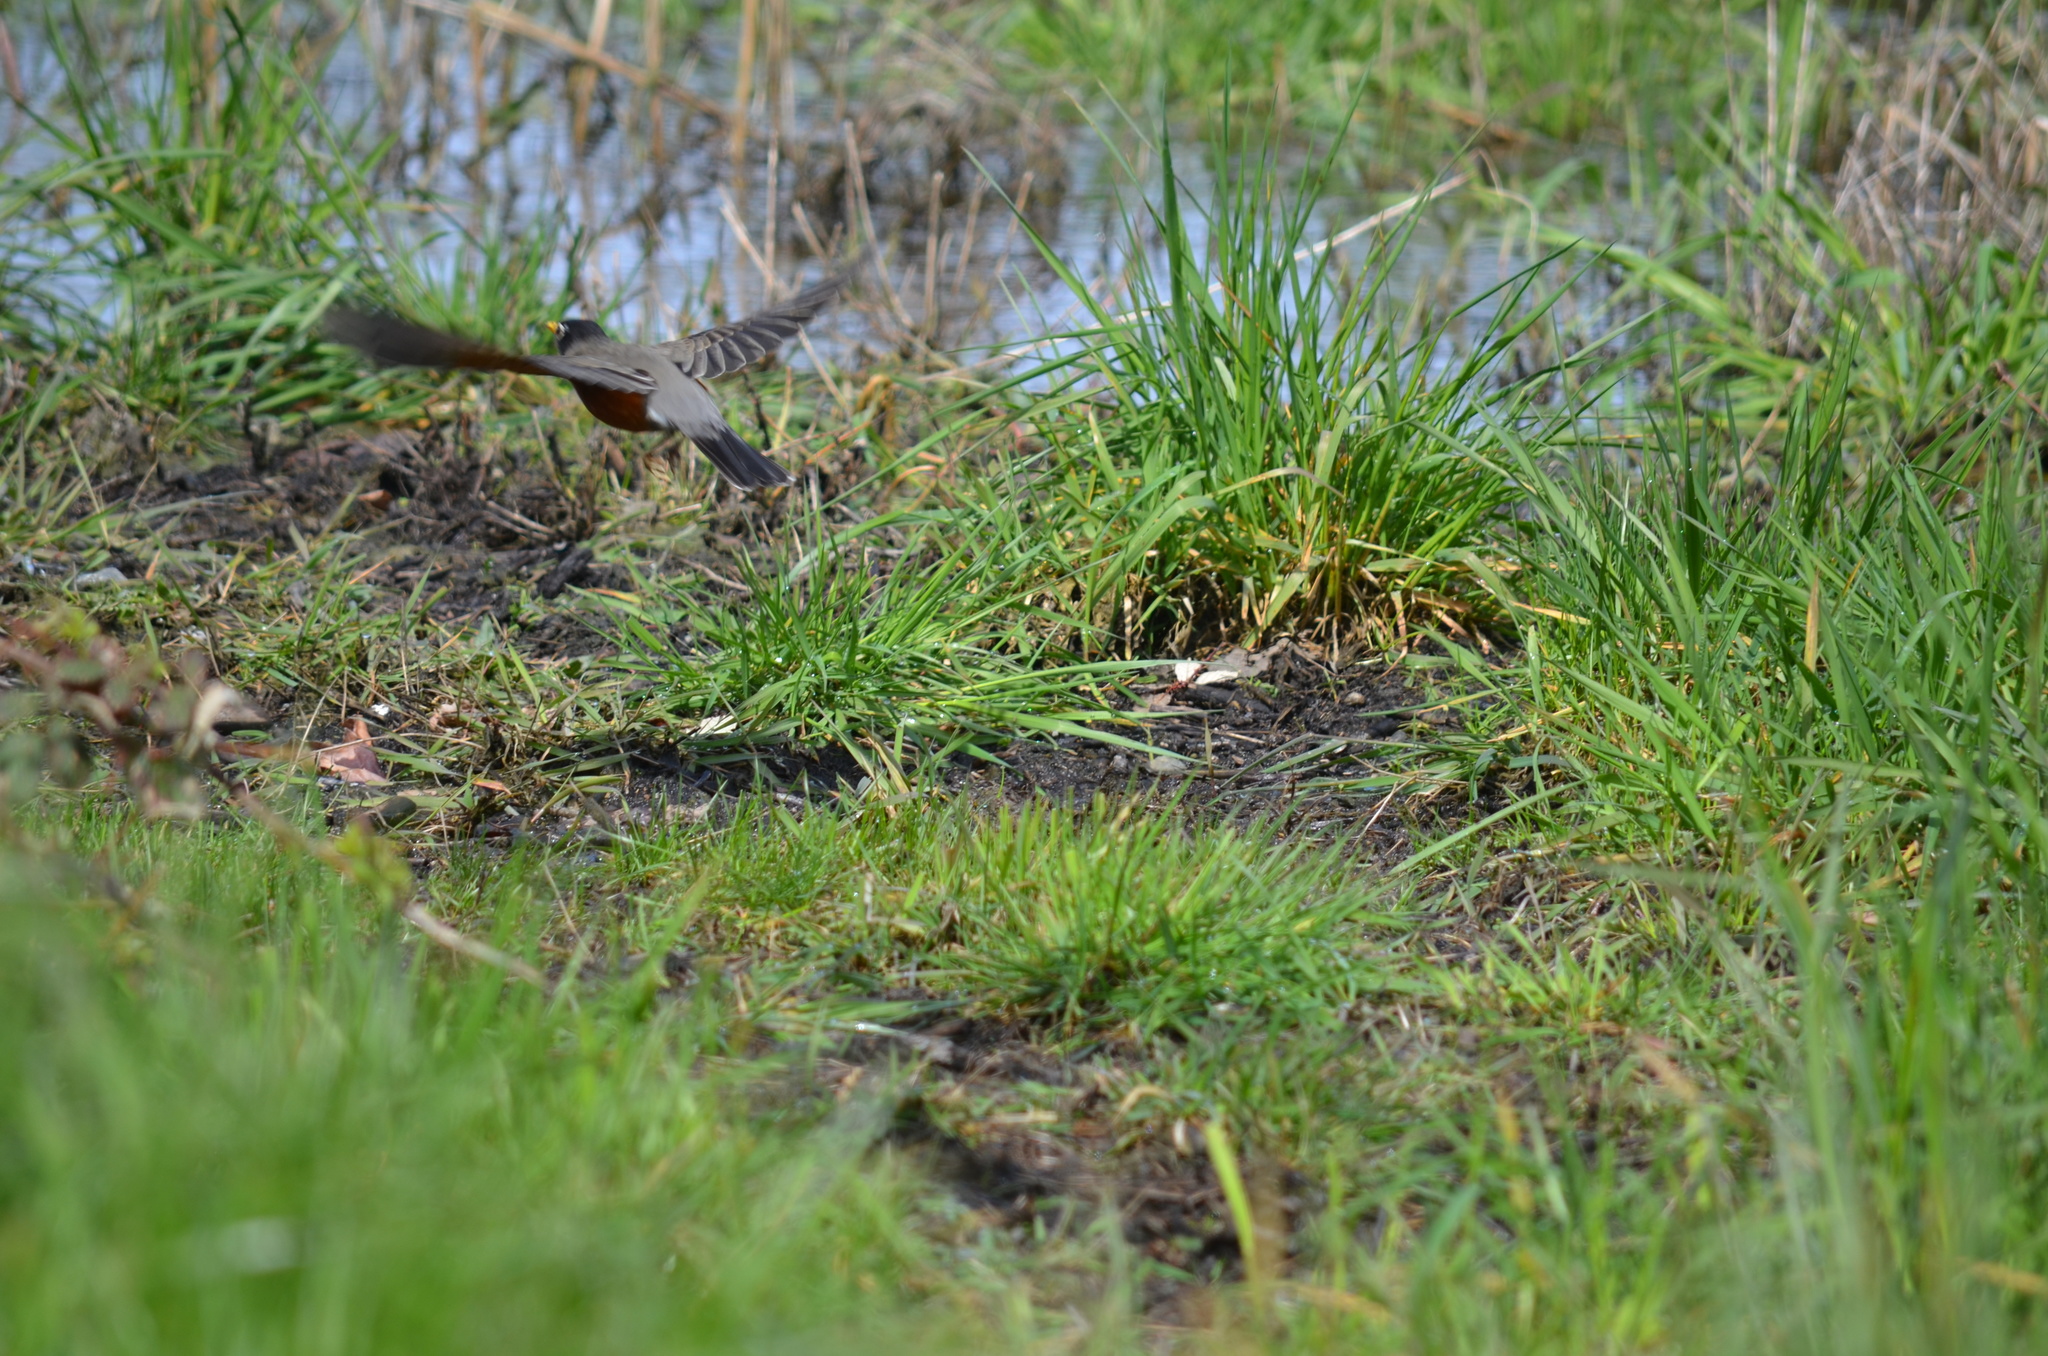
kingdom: Animalia
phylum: Chordata
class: Aves
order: Passeriformes
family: Turdidae
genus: Turdus
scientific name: Turdus migratorius
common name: American robin
